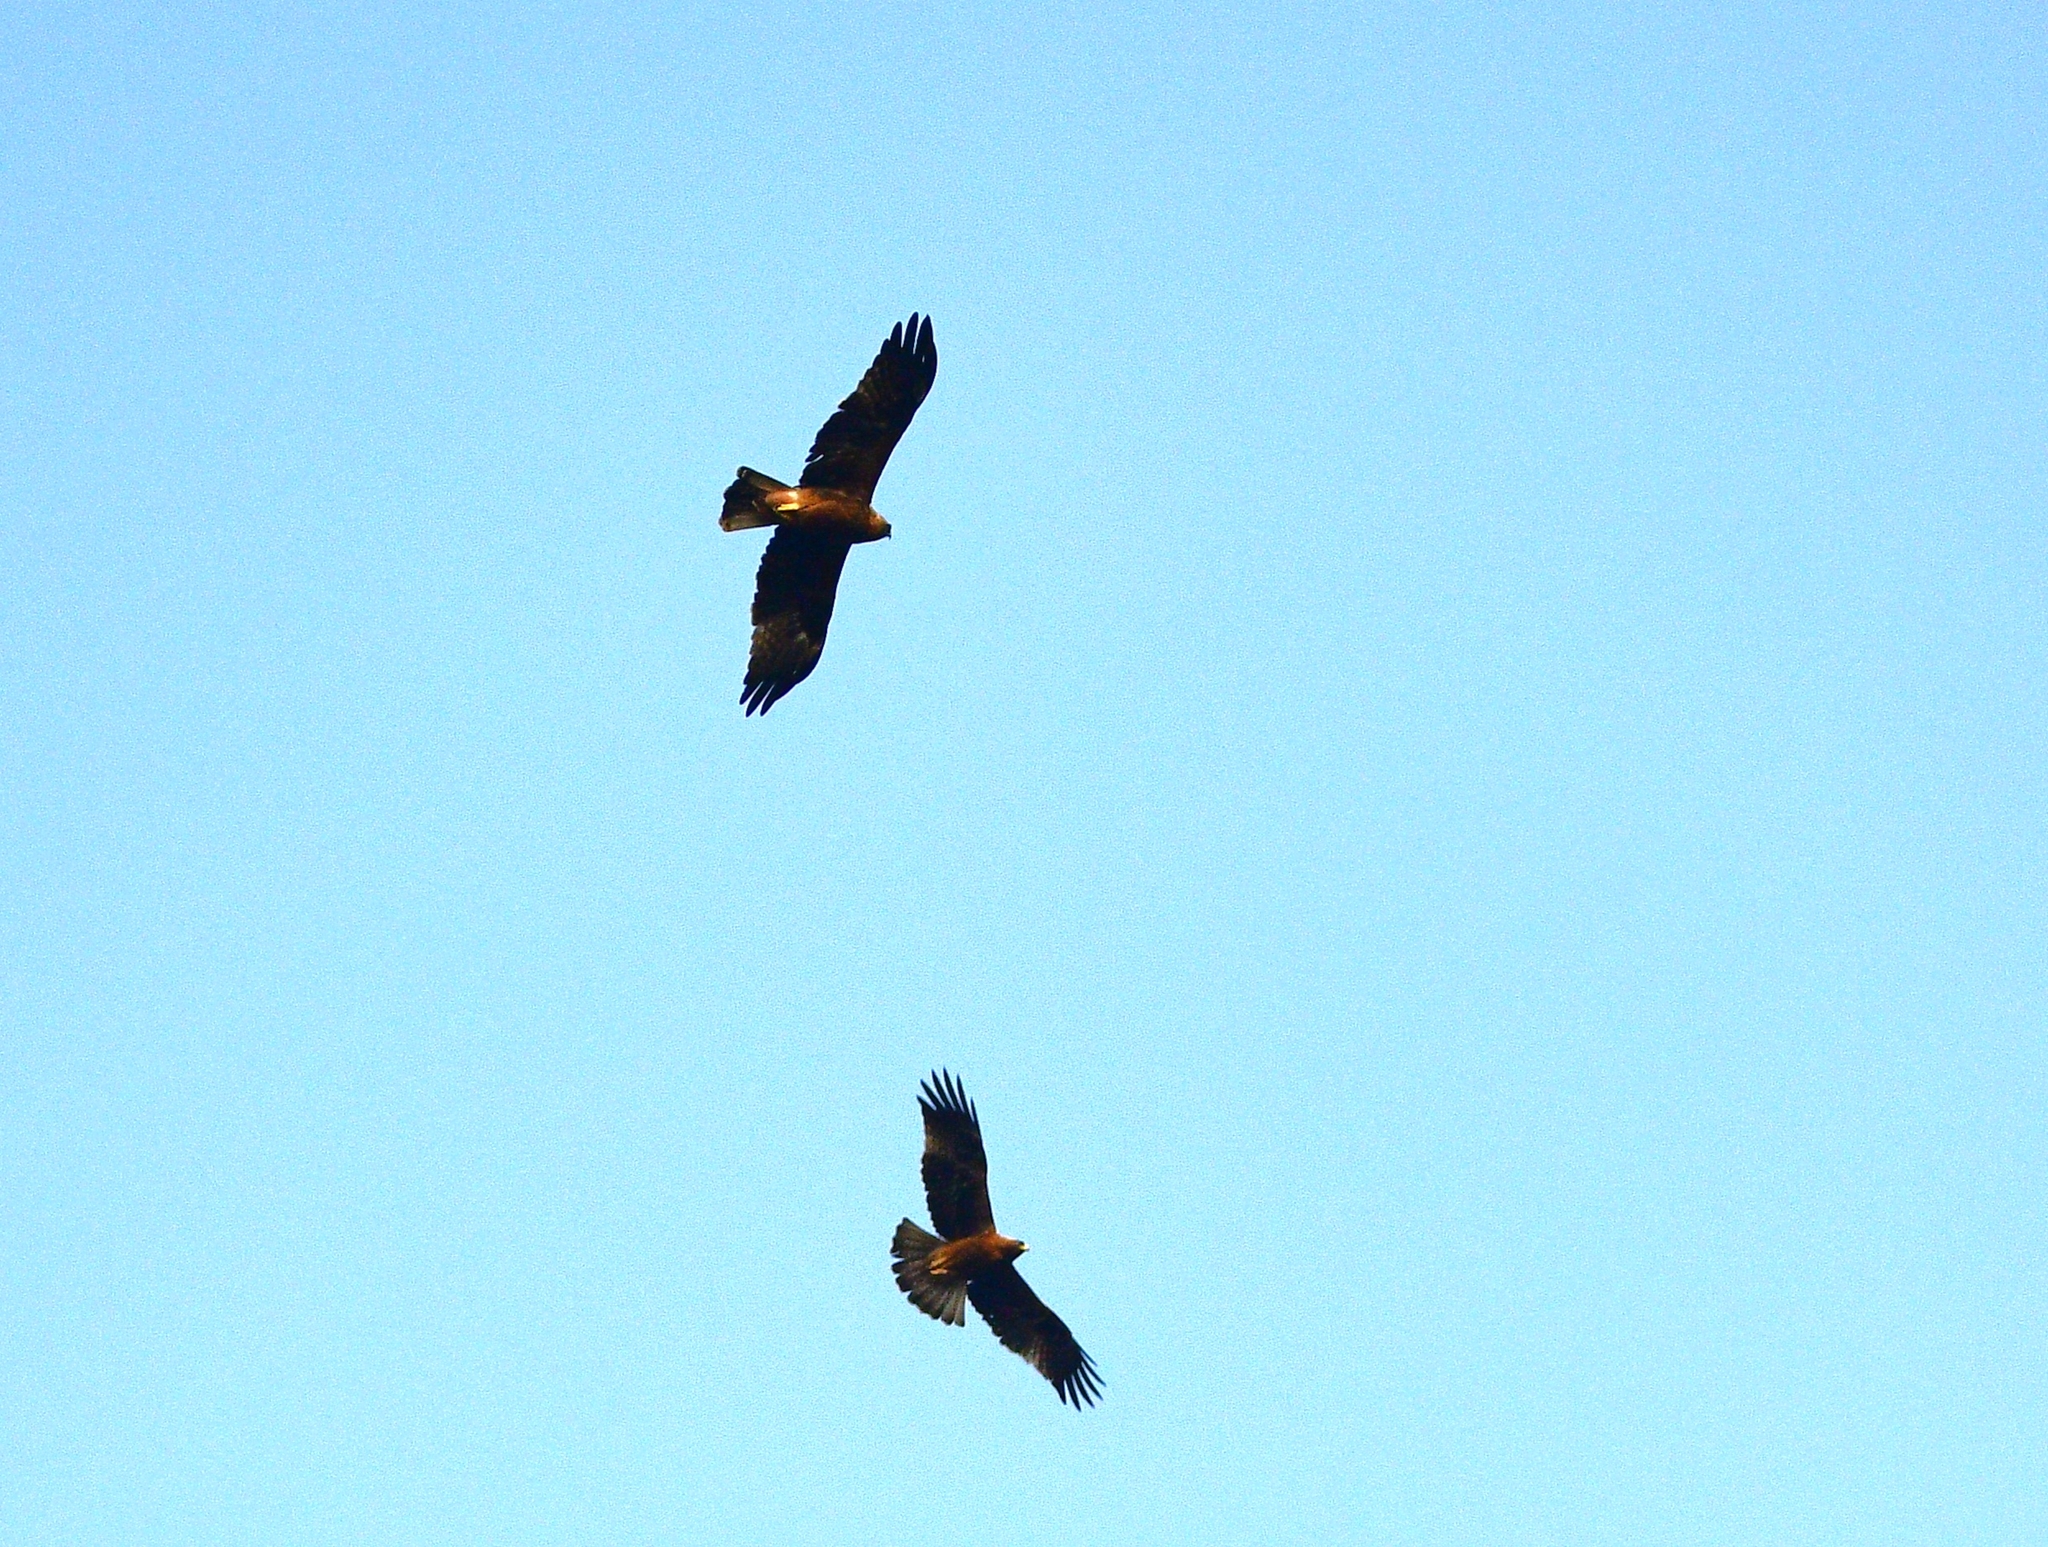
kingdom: Animalia
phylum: Chordata
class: Aves
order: Accipitriformes
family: Accipitridae
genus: Hieraaetus
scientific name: Hieraaetus pennatus
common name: Booted eagle
